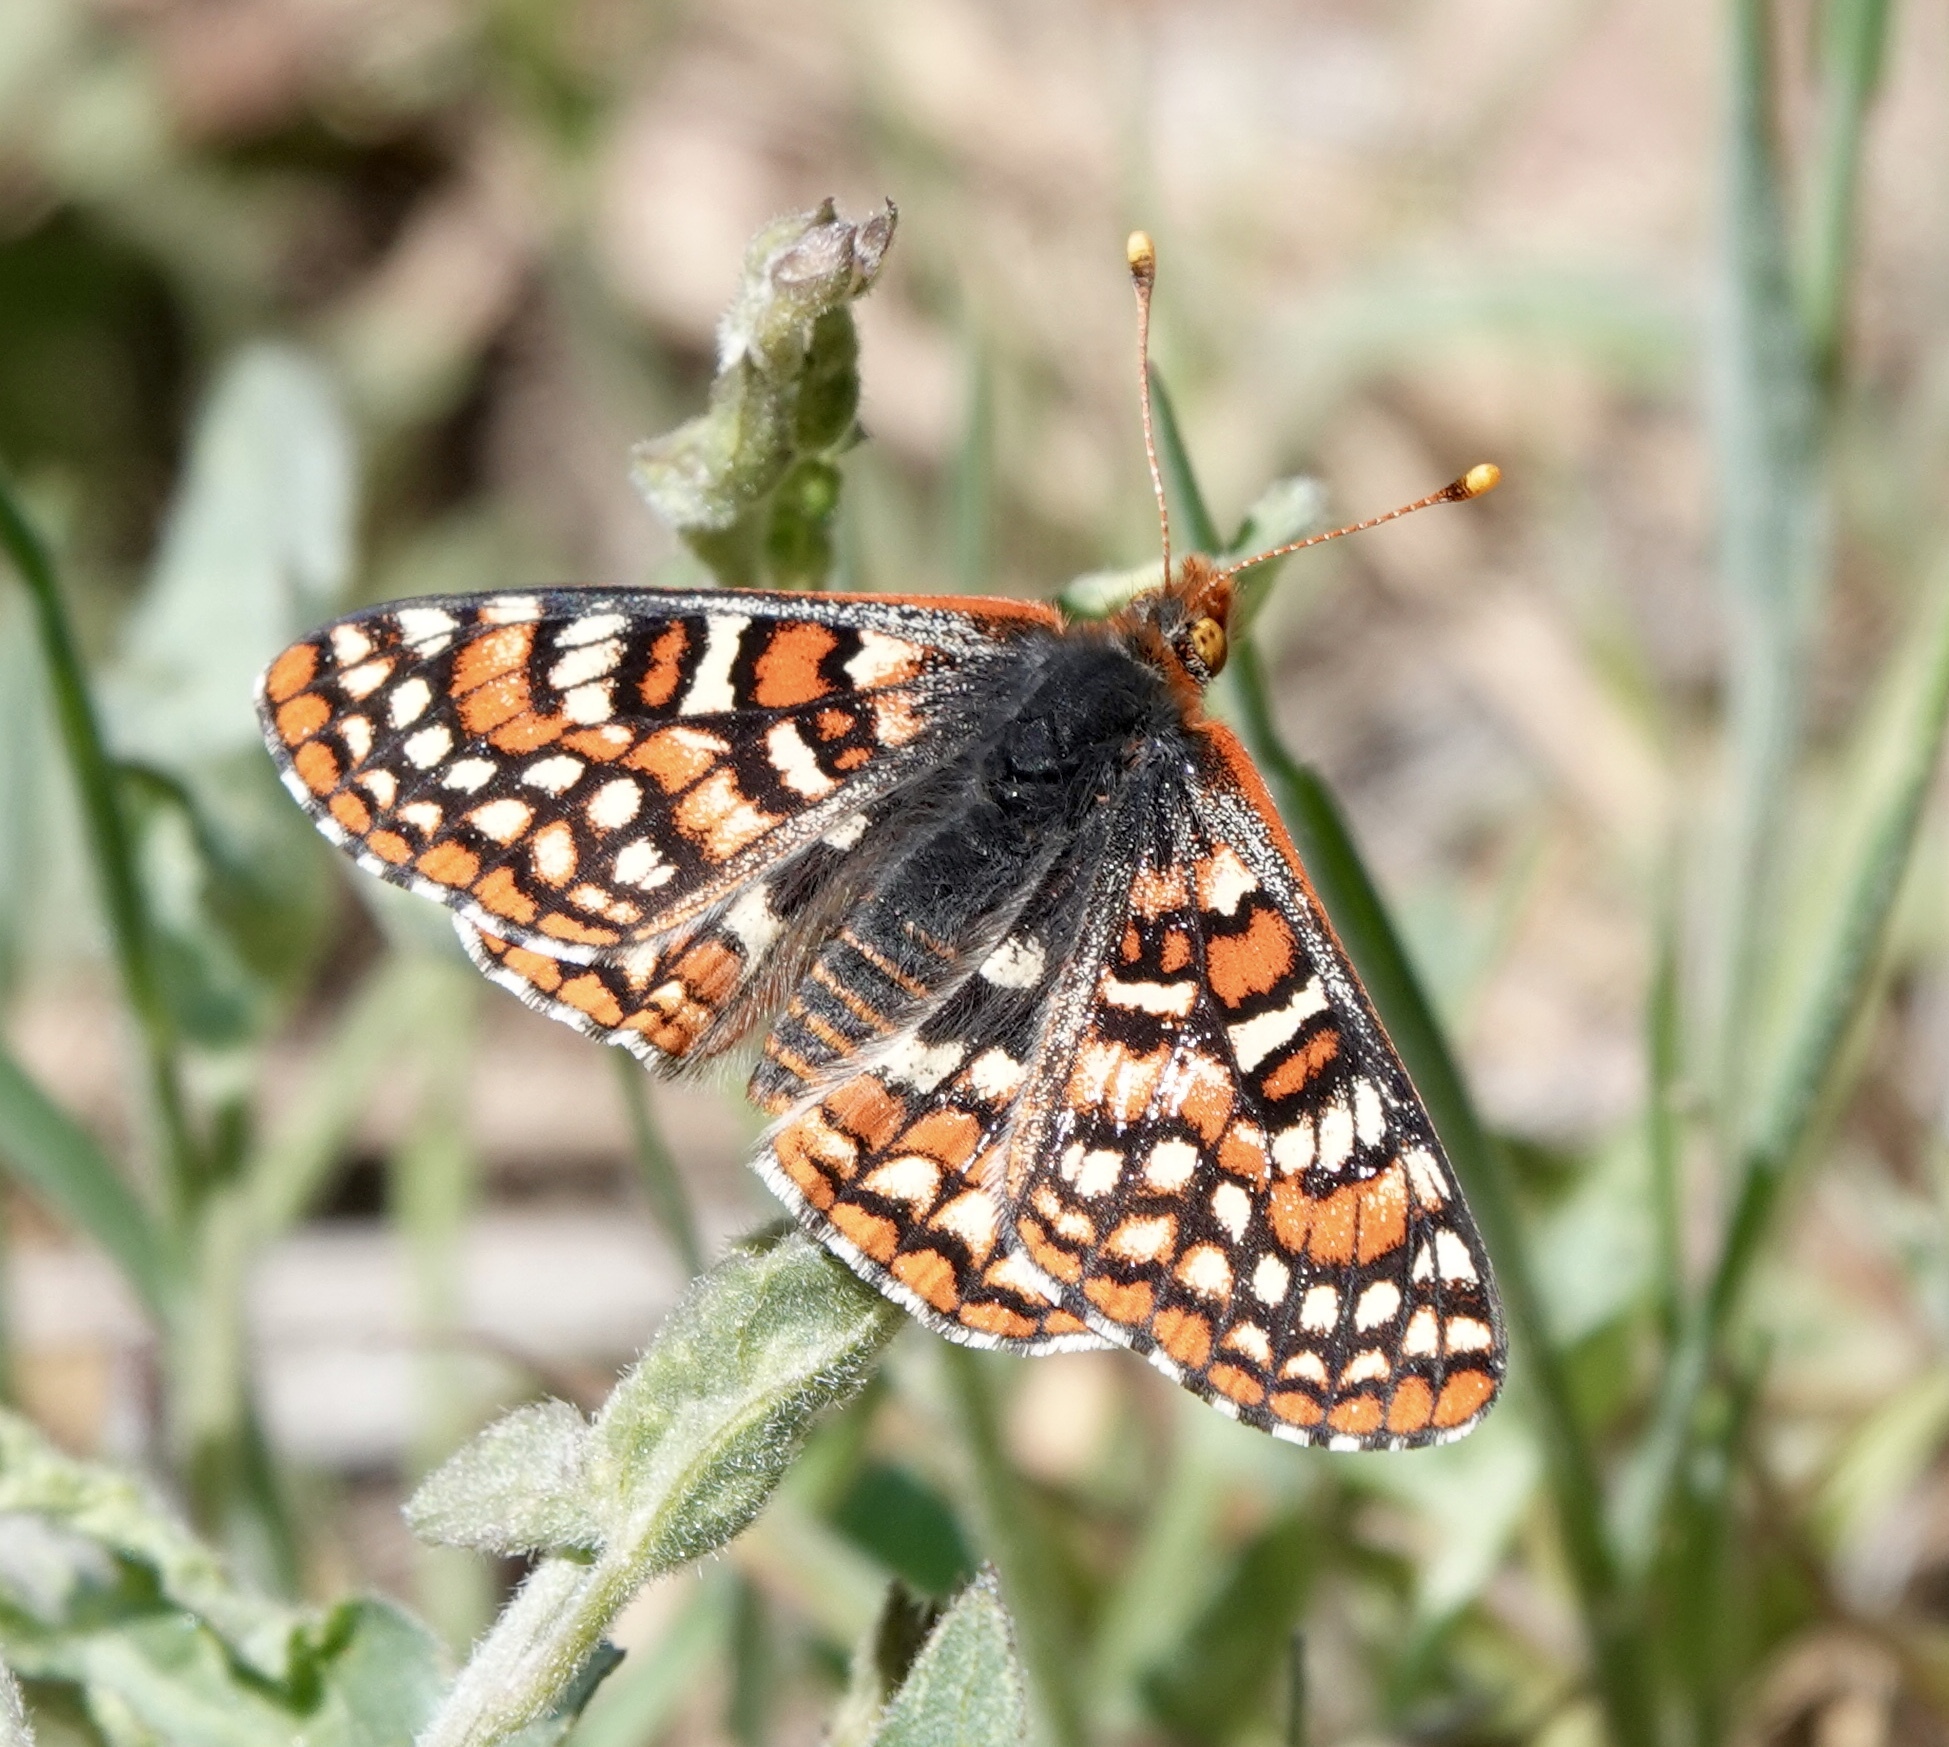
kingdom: Animalia
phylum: Arthropoda
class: Insecta
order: Lepidoptera
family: Nymphalidae
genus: Occidryas
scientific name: Occidryas editha
